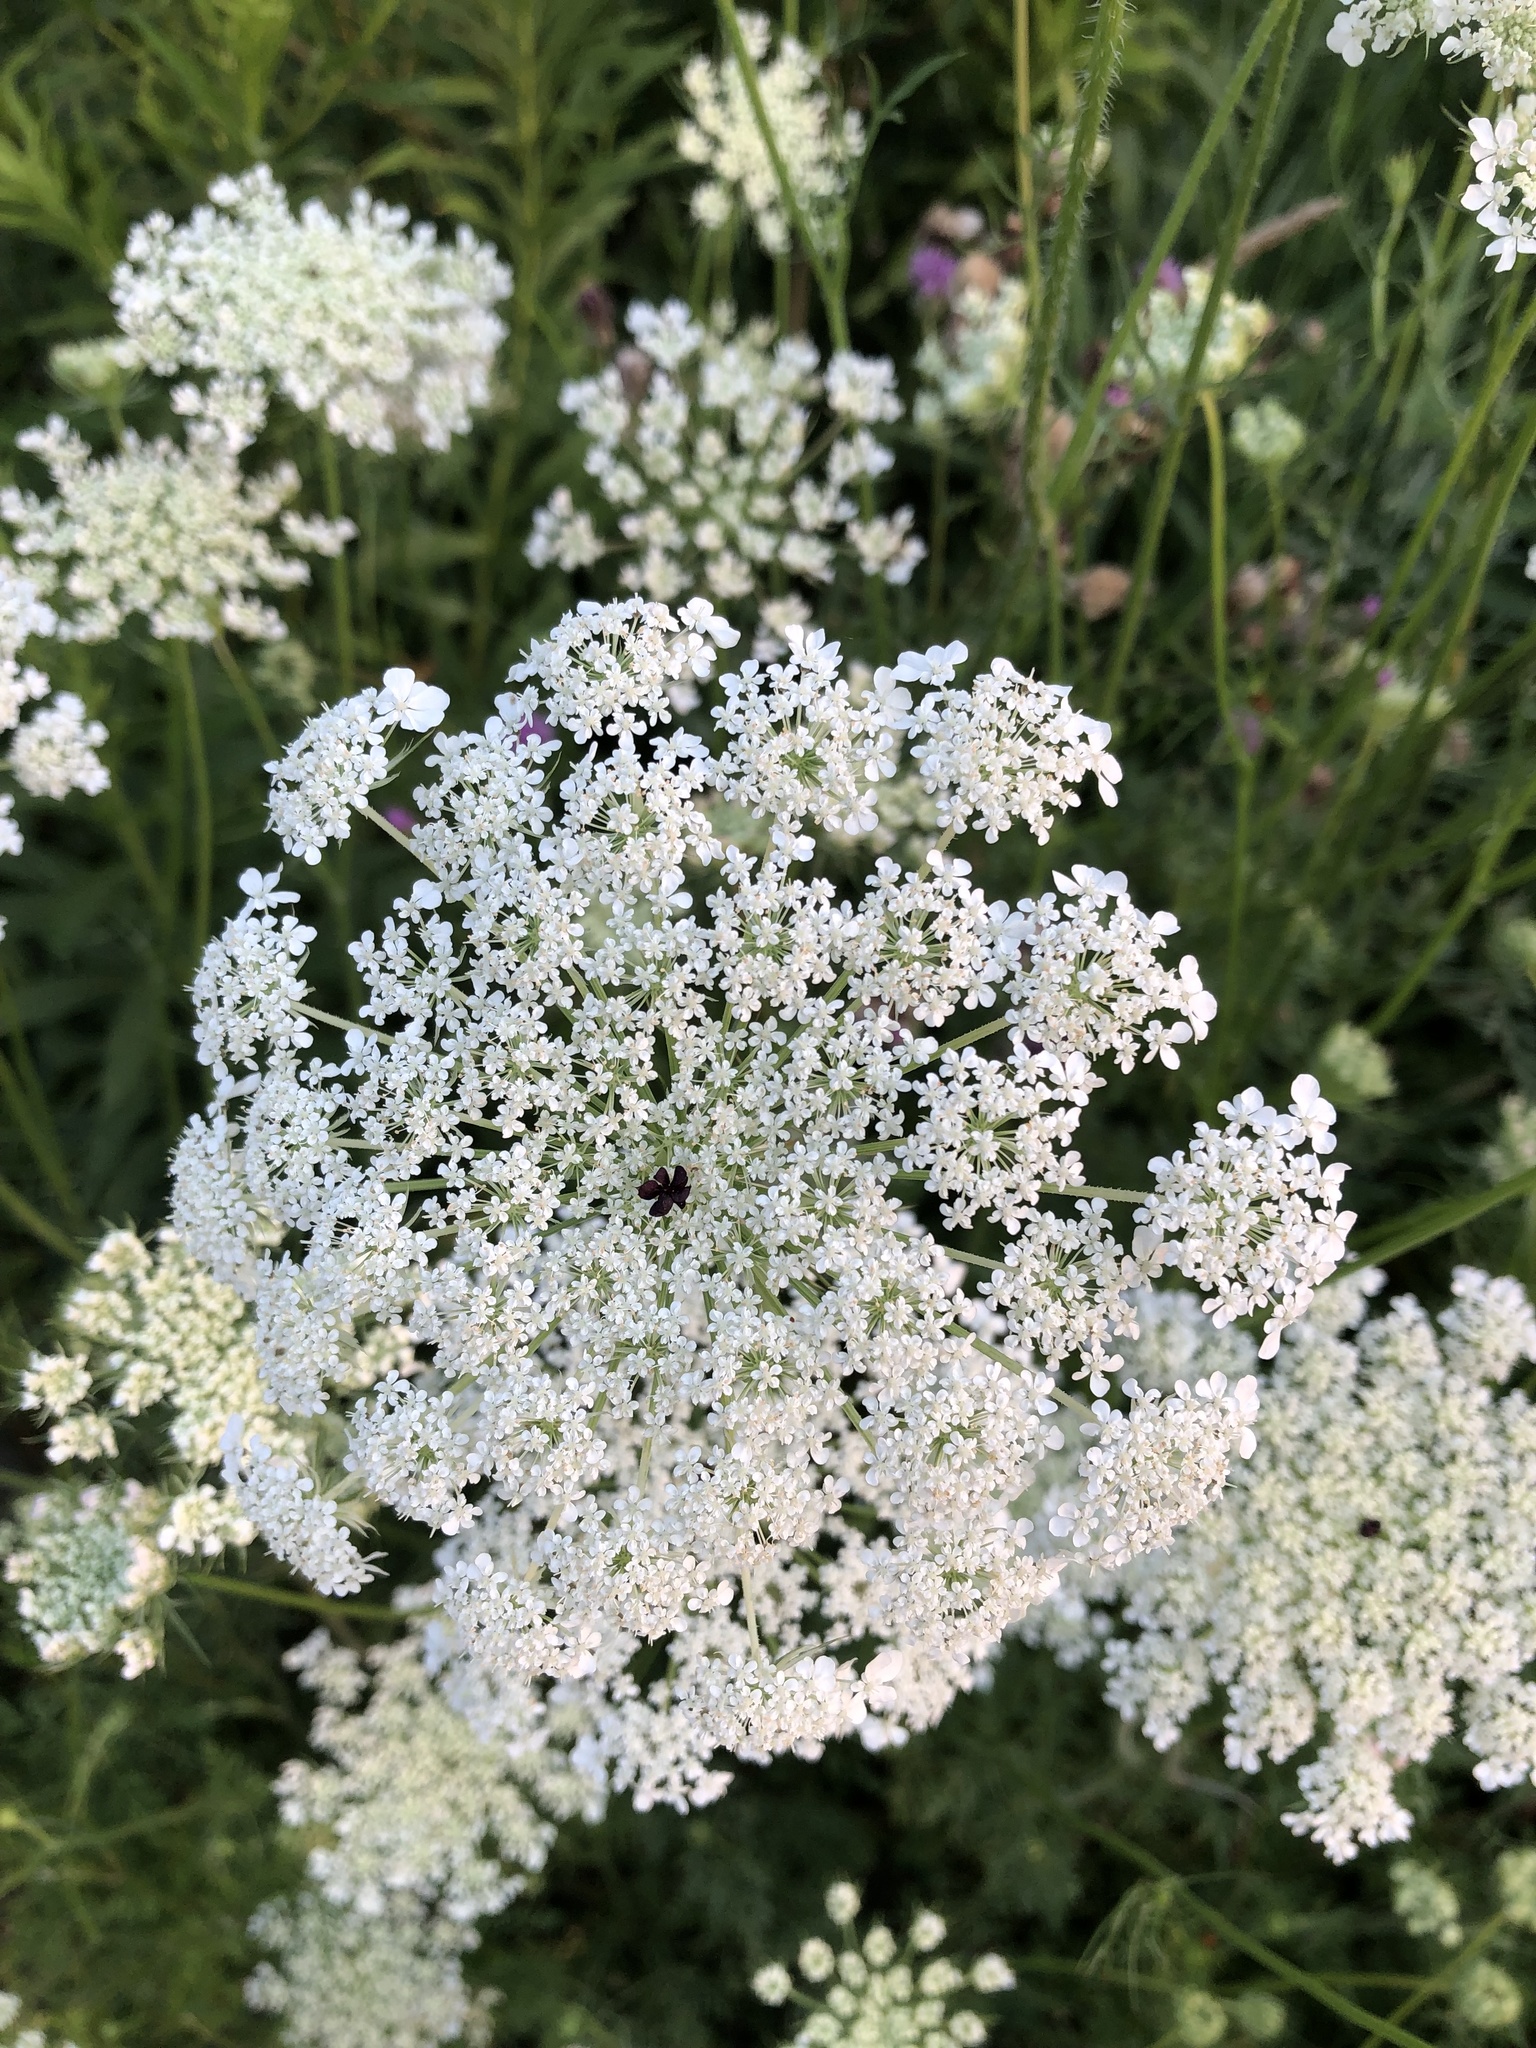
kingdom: Plantae
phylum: Tracheophyta
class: Magnoliopsida
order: Apiales
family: Apiaceae
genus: Daucus
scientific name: Daucus carota
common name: Wild carrot
